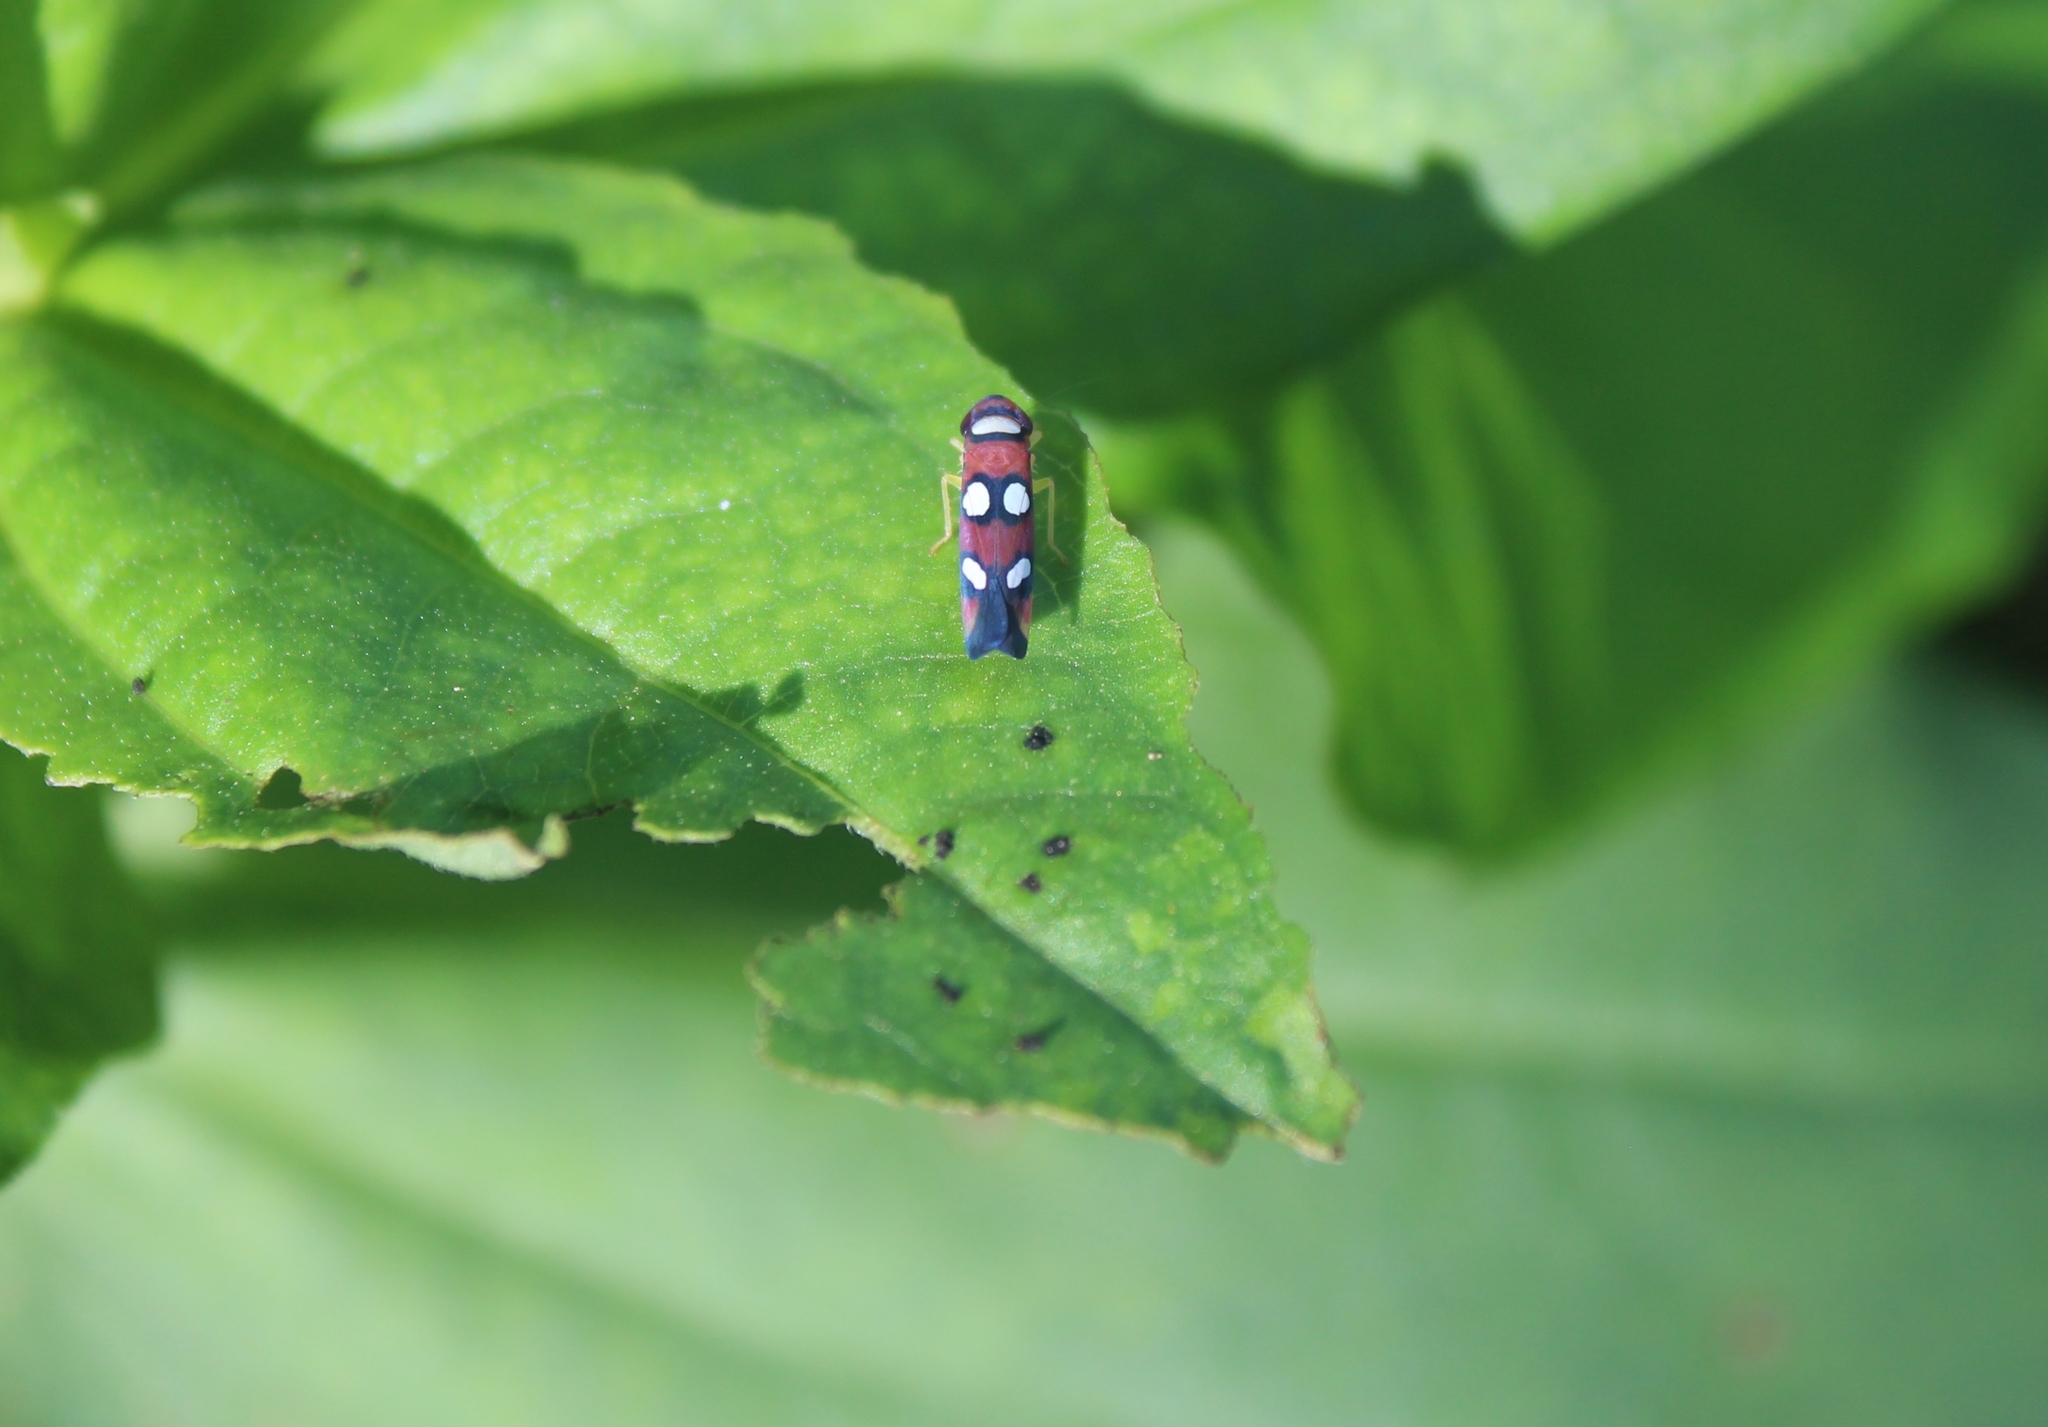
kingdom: Animalia
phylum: Arthropoda
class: Insecta
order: Hemiptera
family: Cicadellidae
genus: Erythrogonia
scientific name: Erythrogonia areolata
